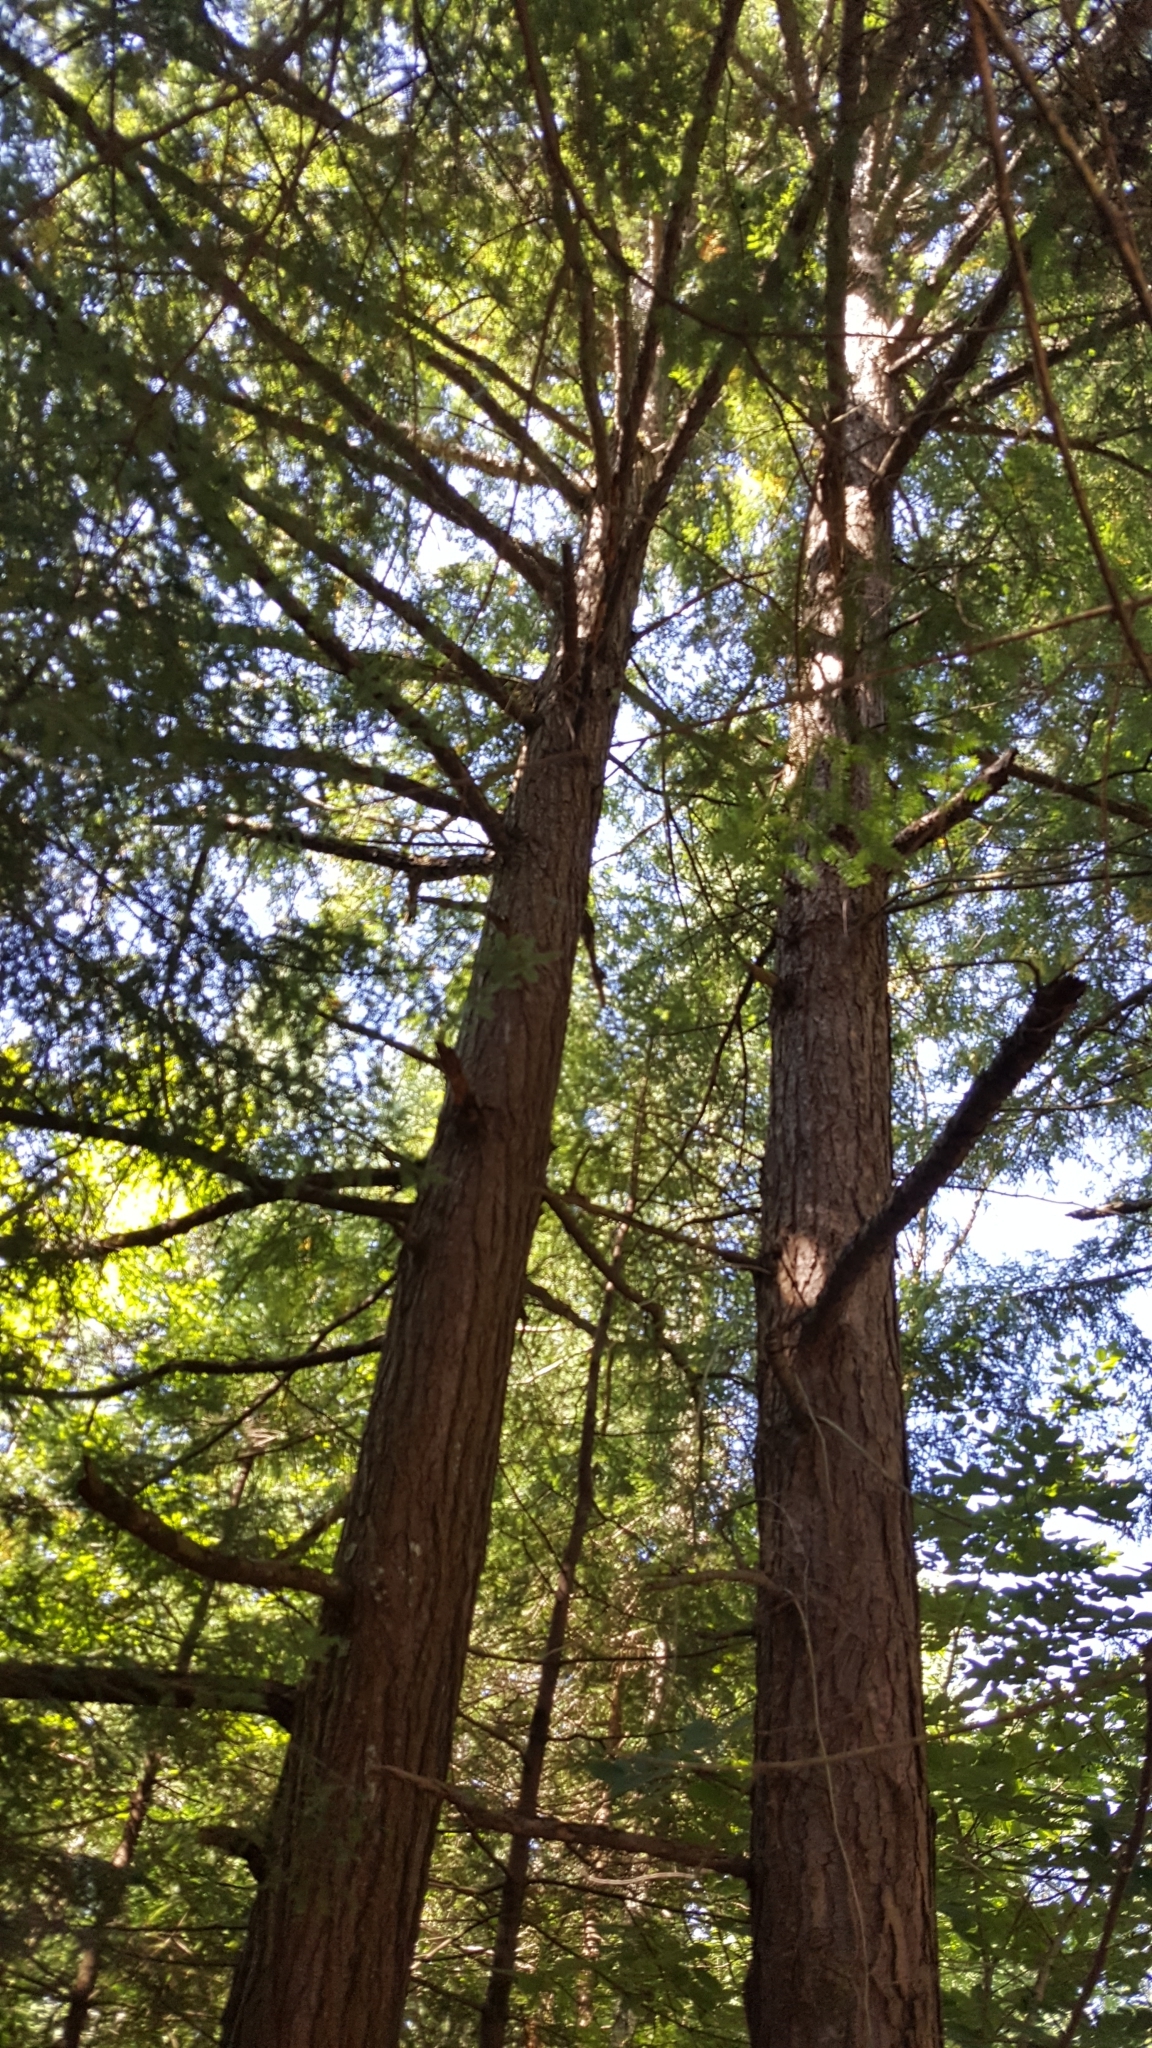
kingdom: Plantae
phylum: Tracheophyta
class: Pinopsida
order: Pinales
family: Pinaceae
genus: Tsuga
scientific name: Tsuga canadensis
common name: Eastern hemlock
